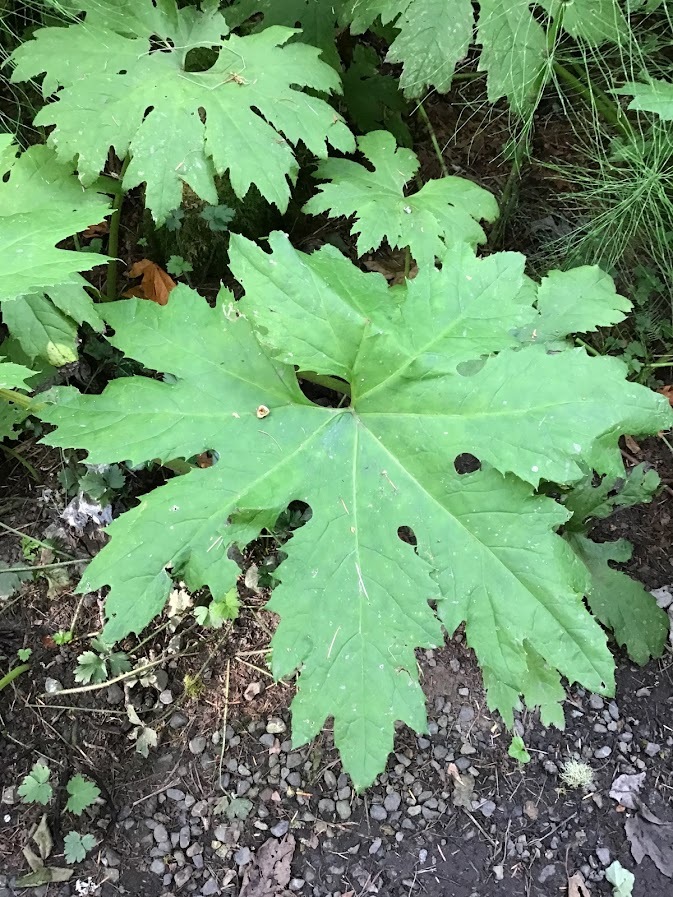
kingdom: Plantae
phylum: Tracheophyta
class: Magnoliopsida
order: Asterales
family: Asteraceae
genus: Petasites
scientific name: Petasites frigidus
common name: Arctic butterbur
